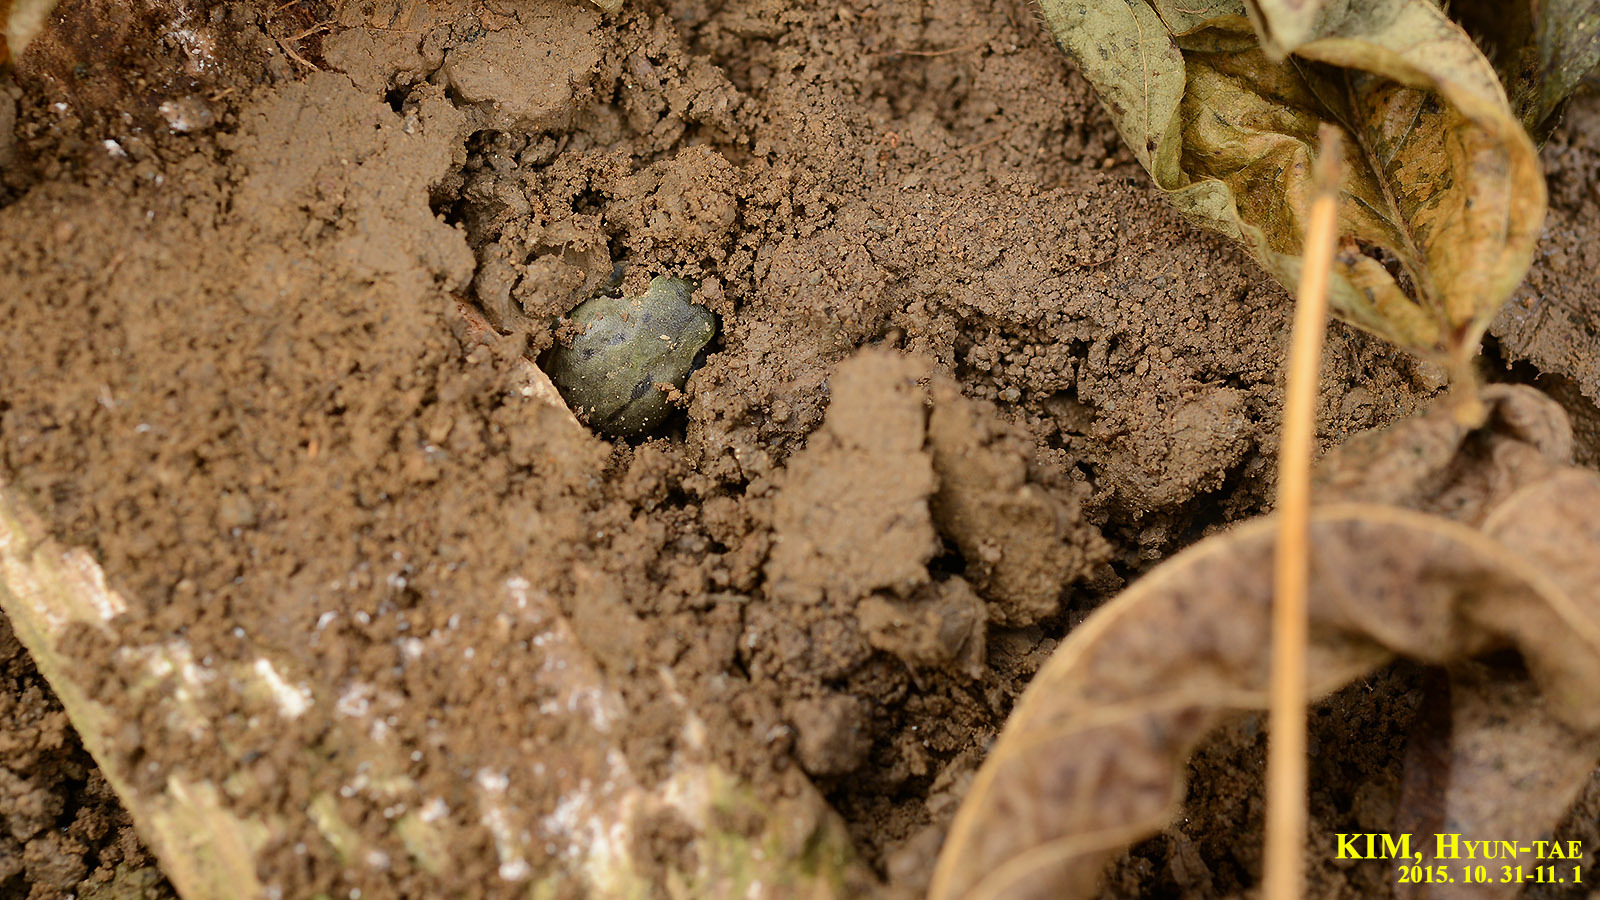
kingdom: Animalia
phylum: Chordata
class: Amphibia
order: Anura
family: Hylidae
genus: Dryophytes
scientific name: Dryophytes immaculatus
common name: North china treefrog
